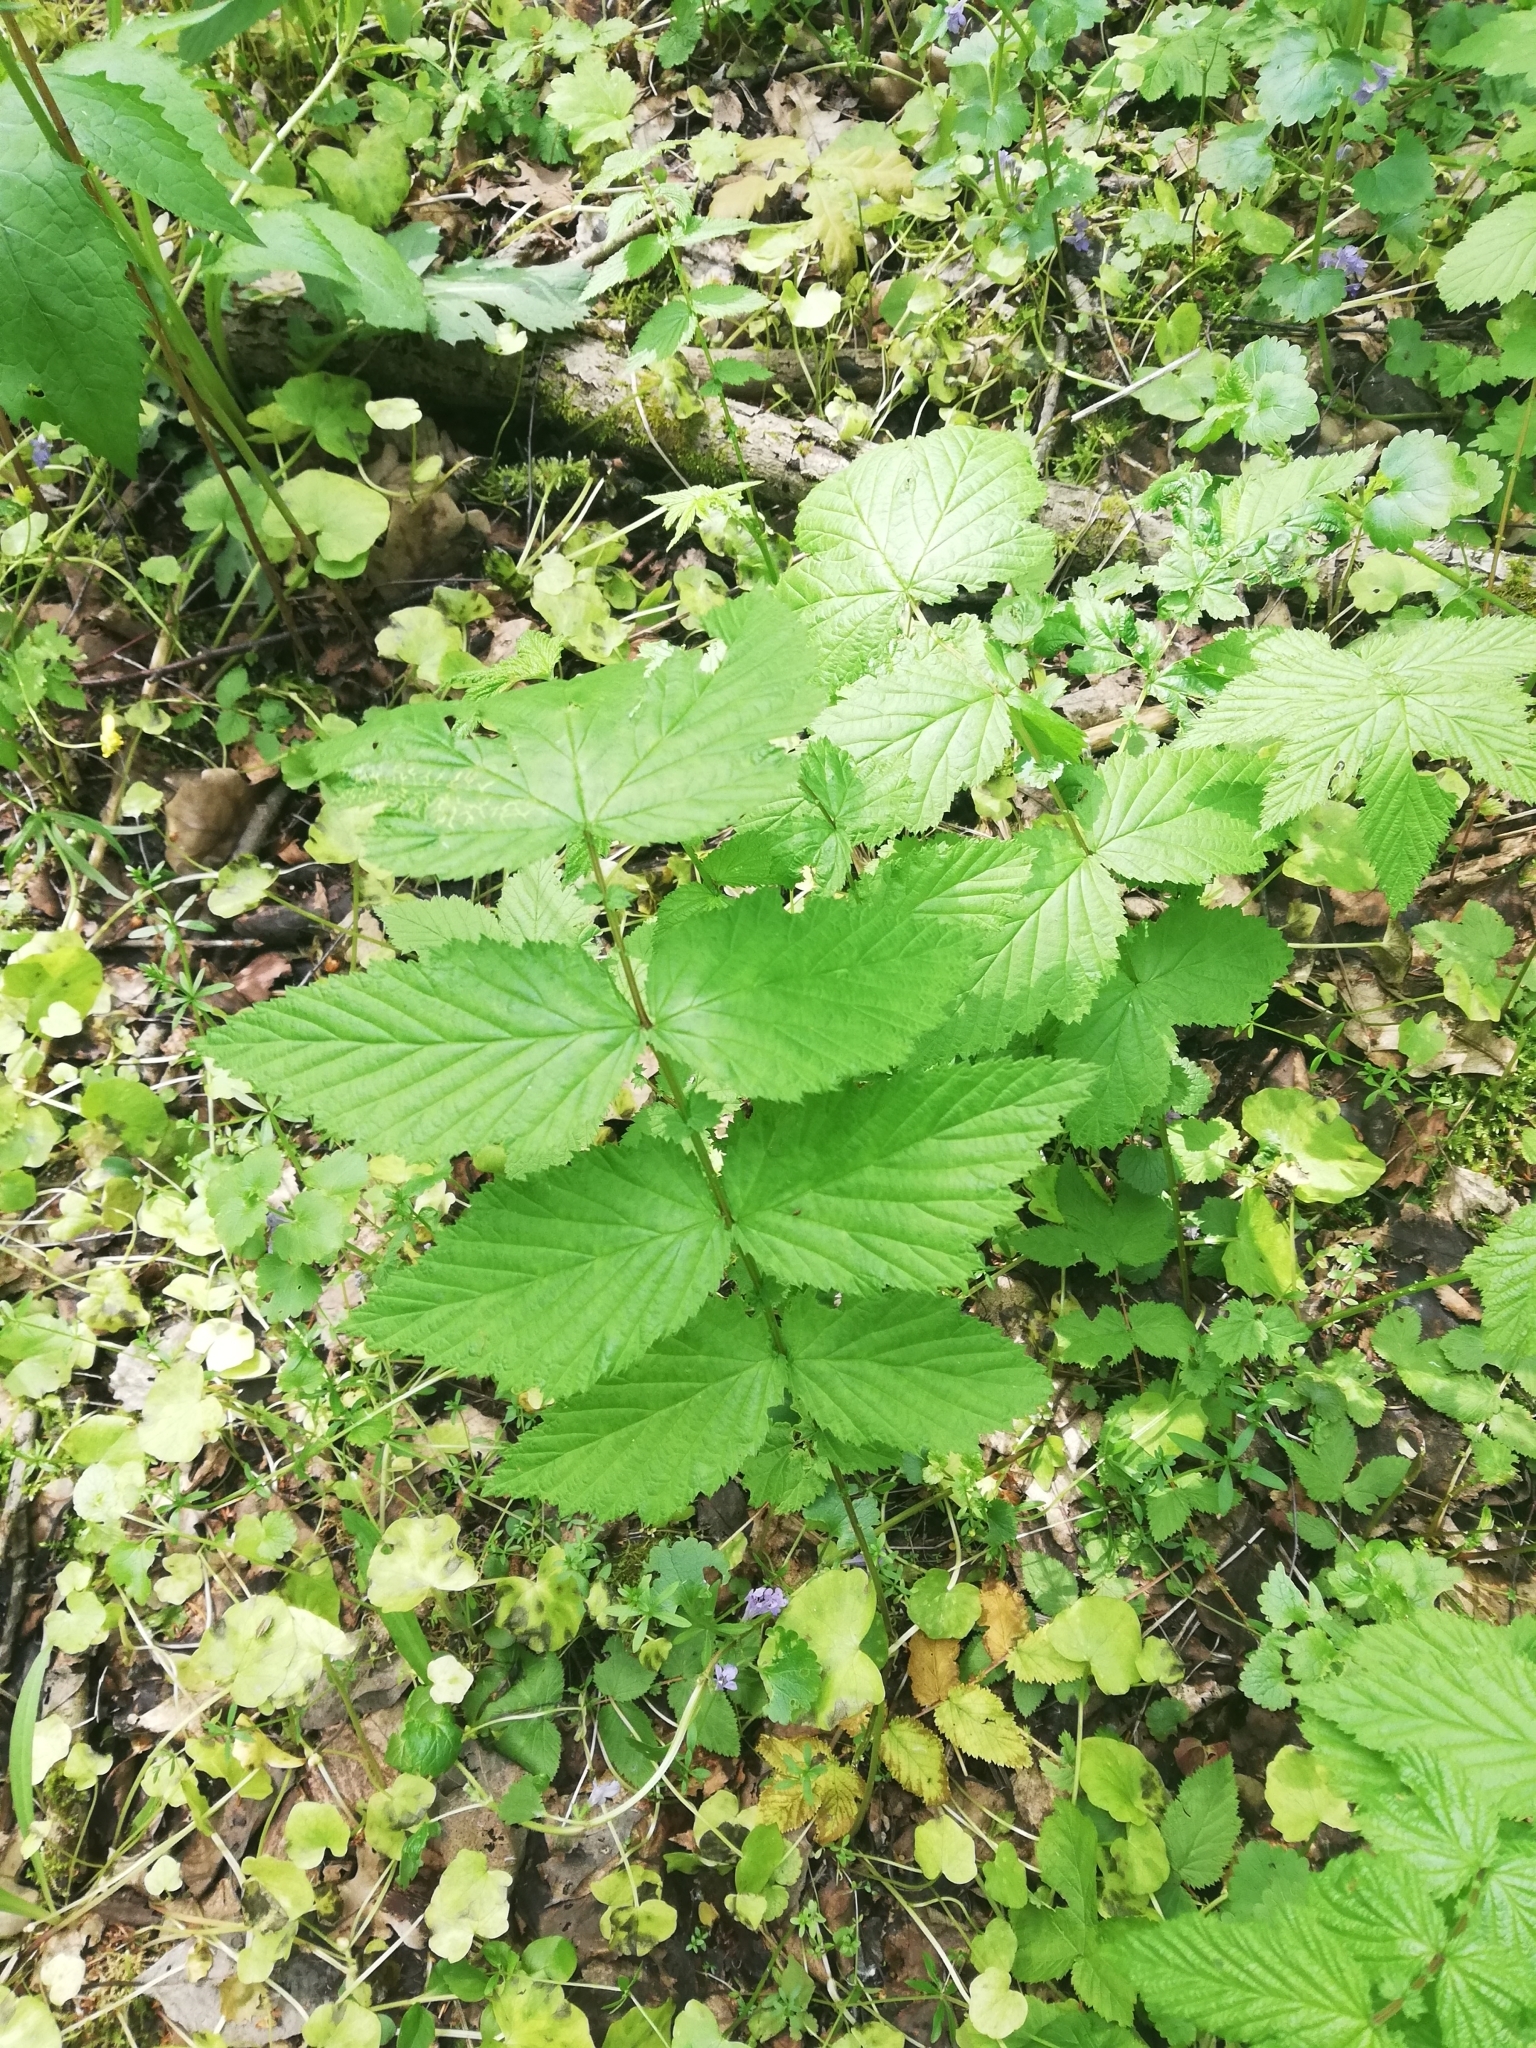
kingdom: Plantae
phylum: Tracheophyta
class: Magnoliopsida
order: Rosales
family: Rosaceae
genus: Filipendula
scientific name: Filipendula ulmaria
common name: Meadowsweet
